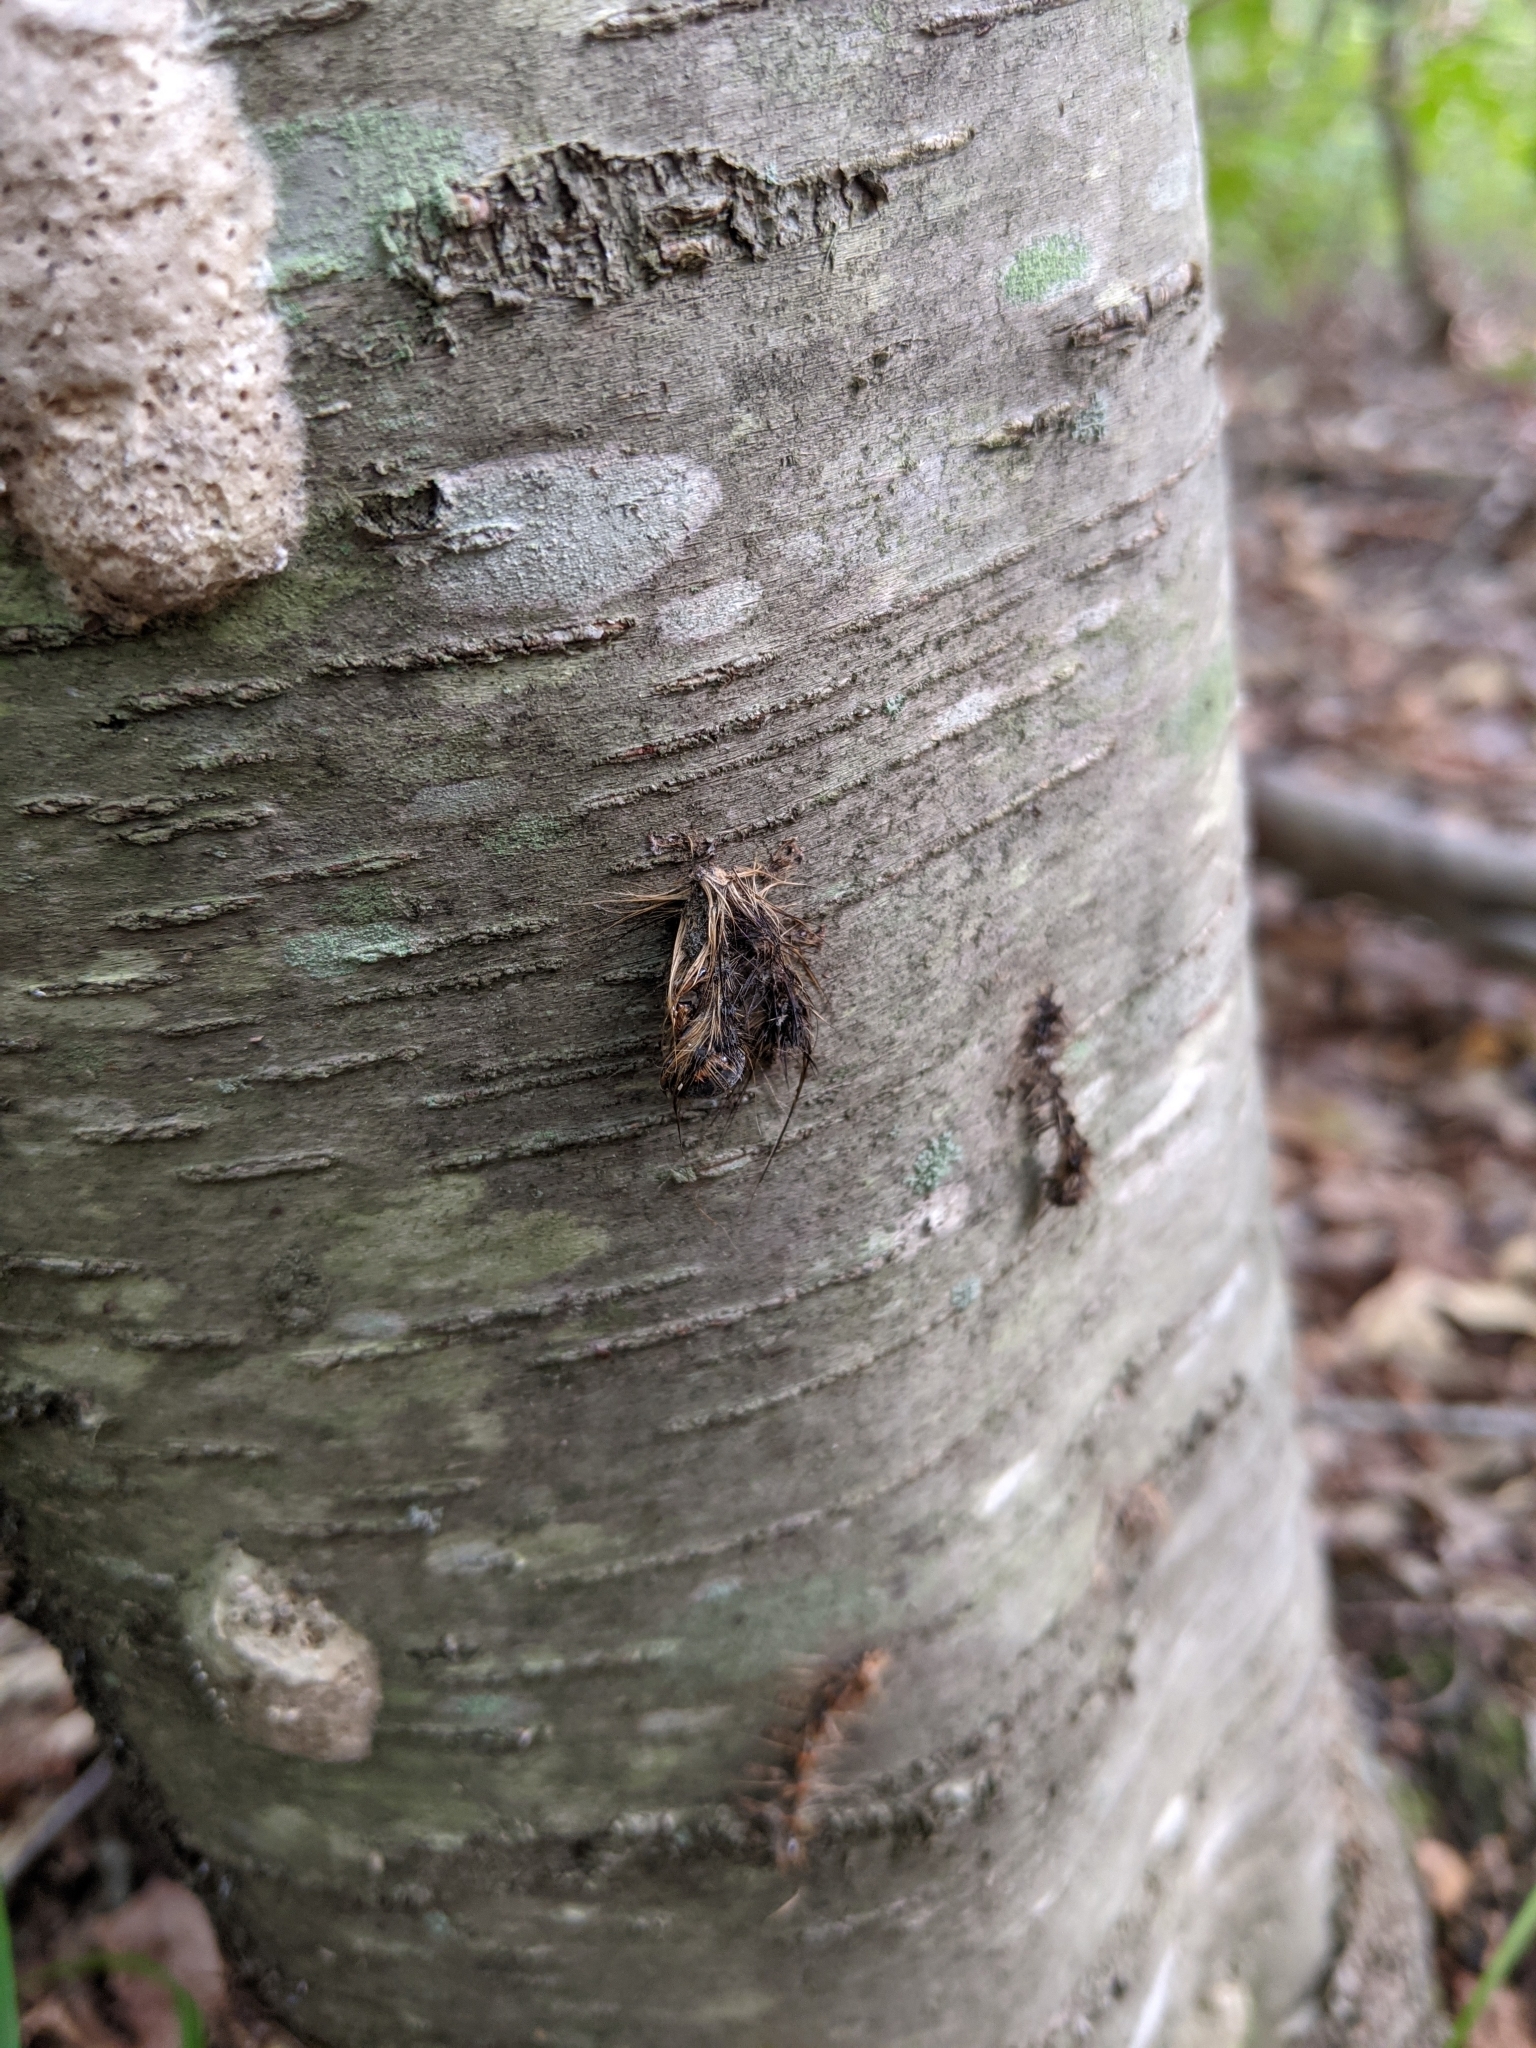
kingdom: Animalia
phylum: Arthropoda
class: Insecta
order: Lepidoptera
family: Erebidae
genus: Lymantria
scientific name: Lymantria dispar
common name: Gypsy moth
